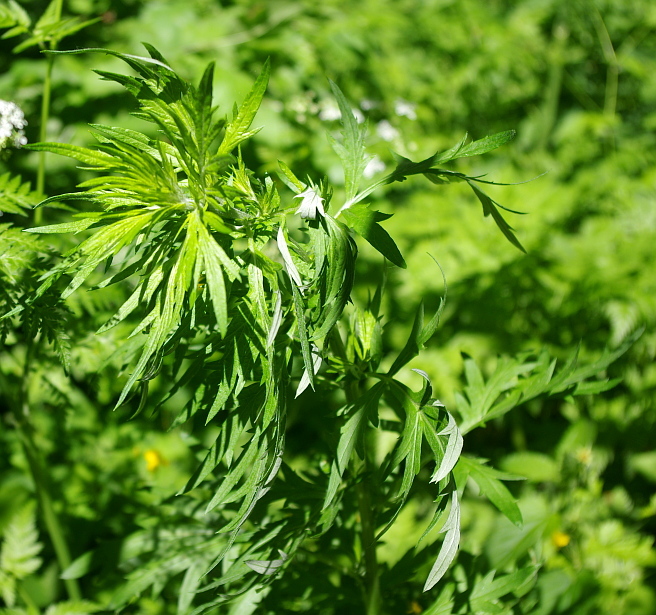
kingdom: Plantae
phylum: Tracheophyta
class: Magnoliopsida
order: Asterales
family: Asteraceae
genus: Artemisia
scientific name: Artemisia vulgaris
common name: Mugwort
